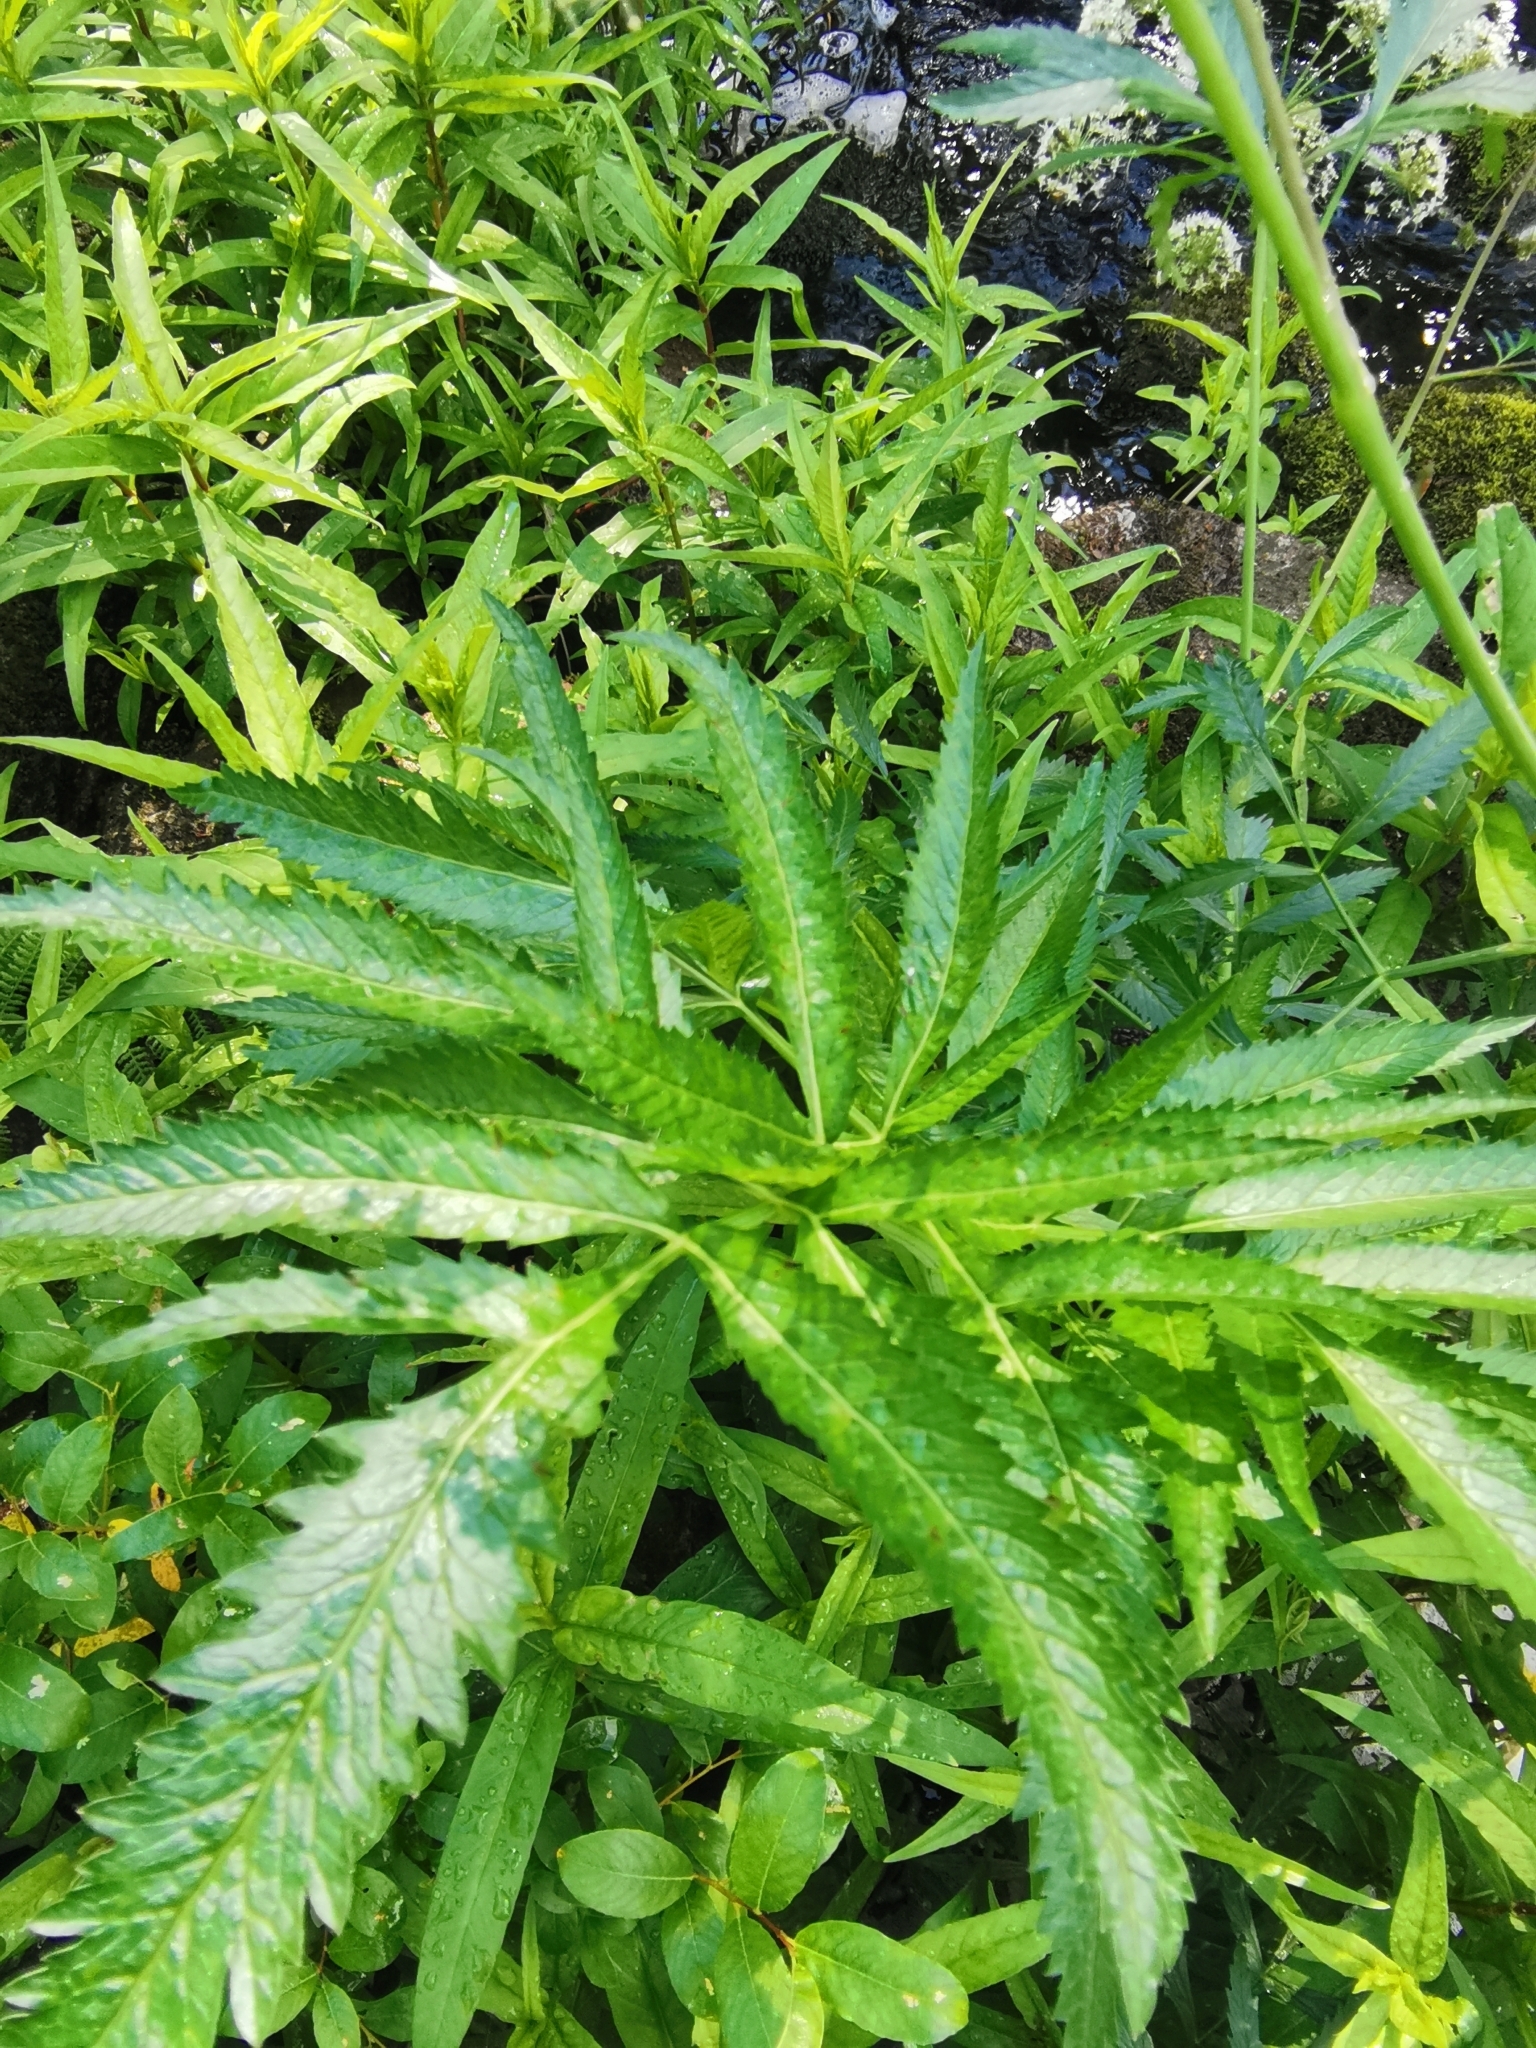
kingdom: Plantae
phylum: Tracheophyta
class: Magnoliopsida
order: Apiales
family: Apiaceae
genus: Cicuta
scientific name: Cicuta virosa
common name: Cowbane
